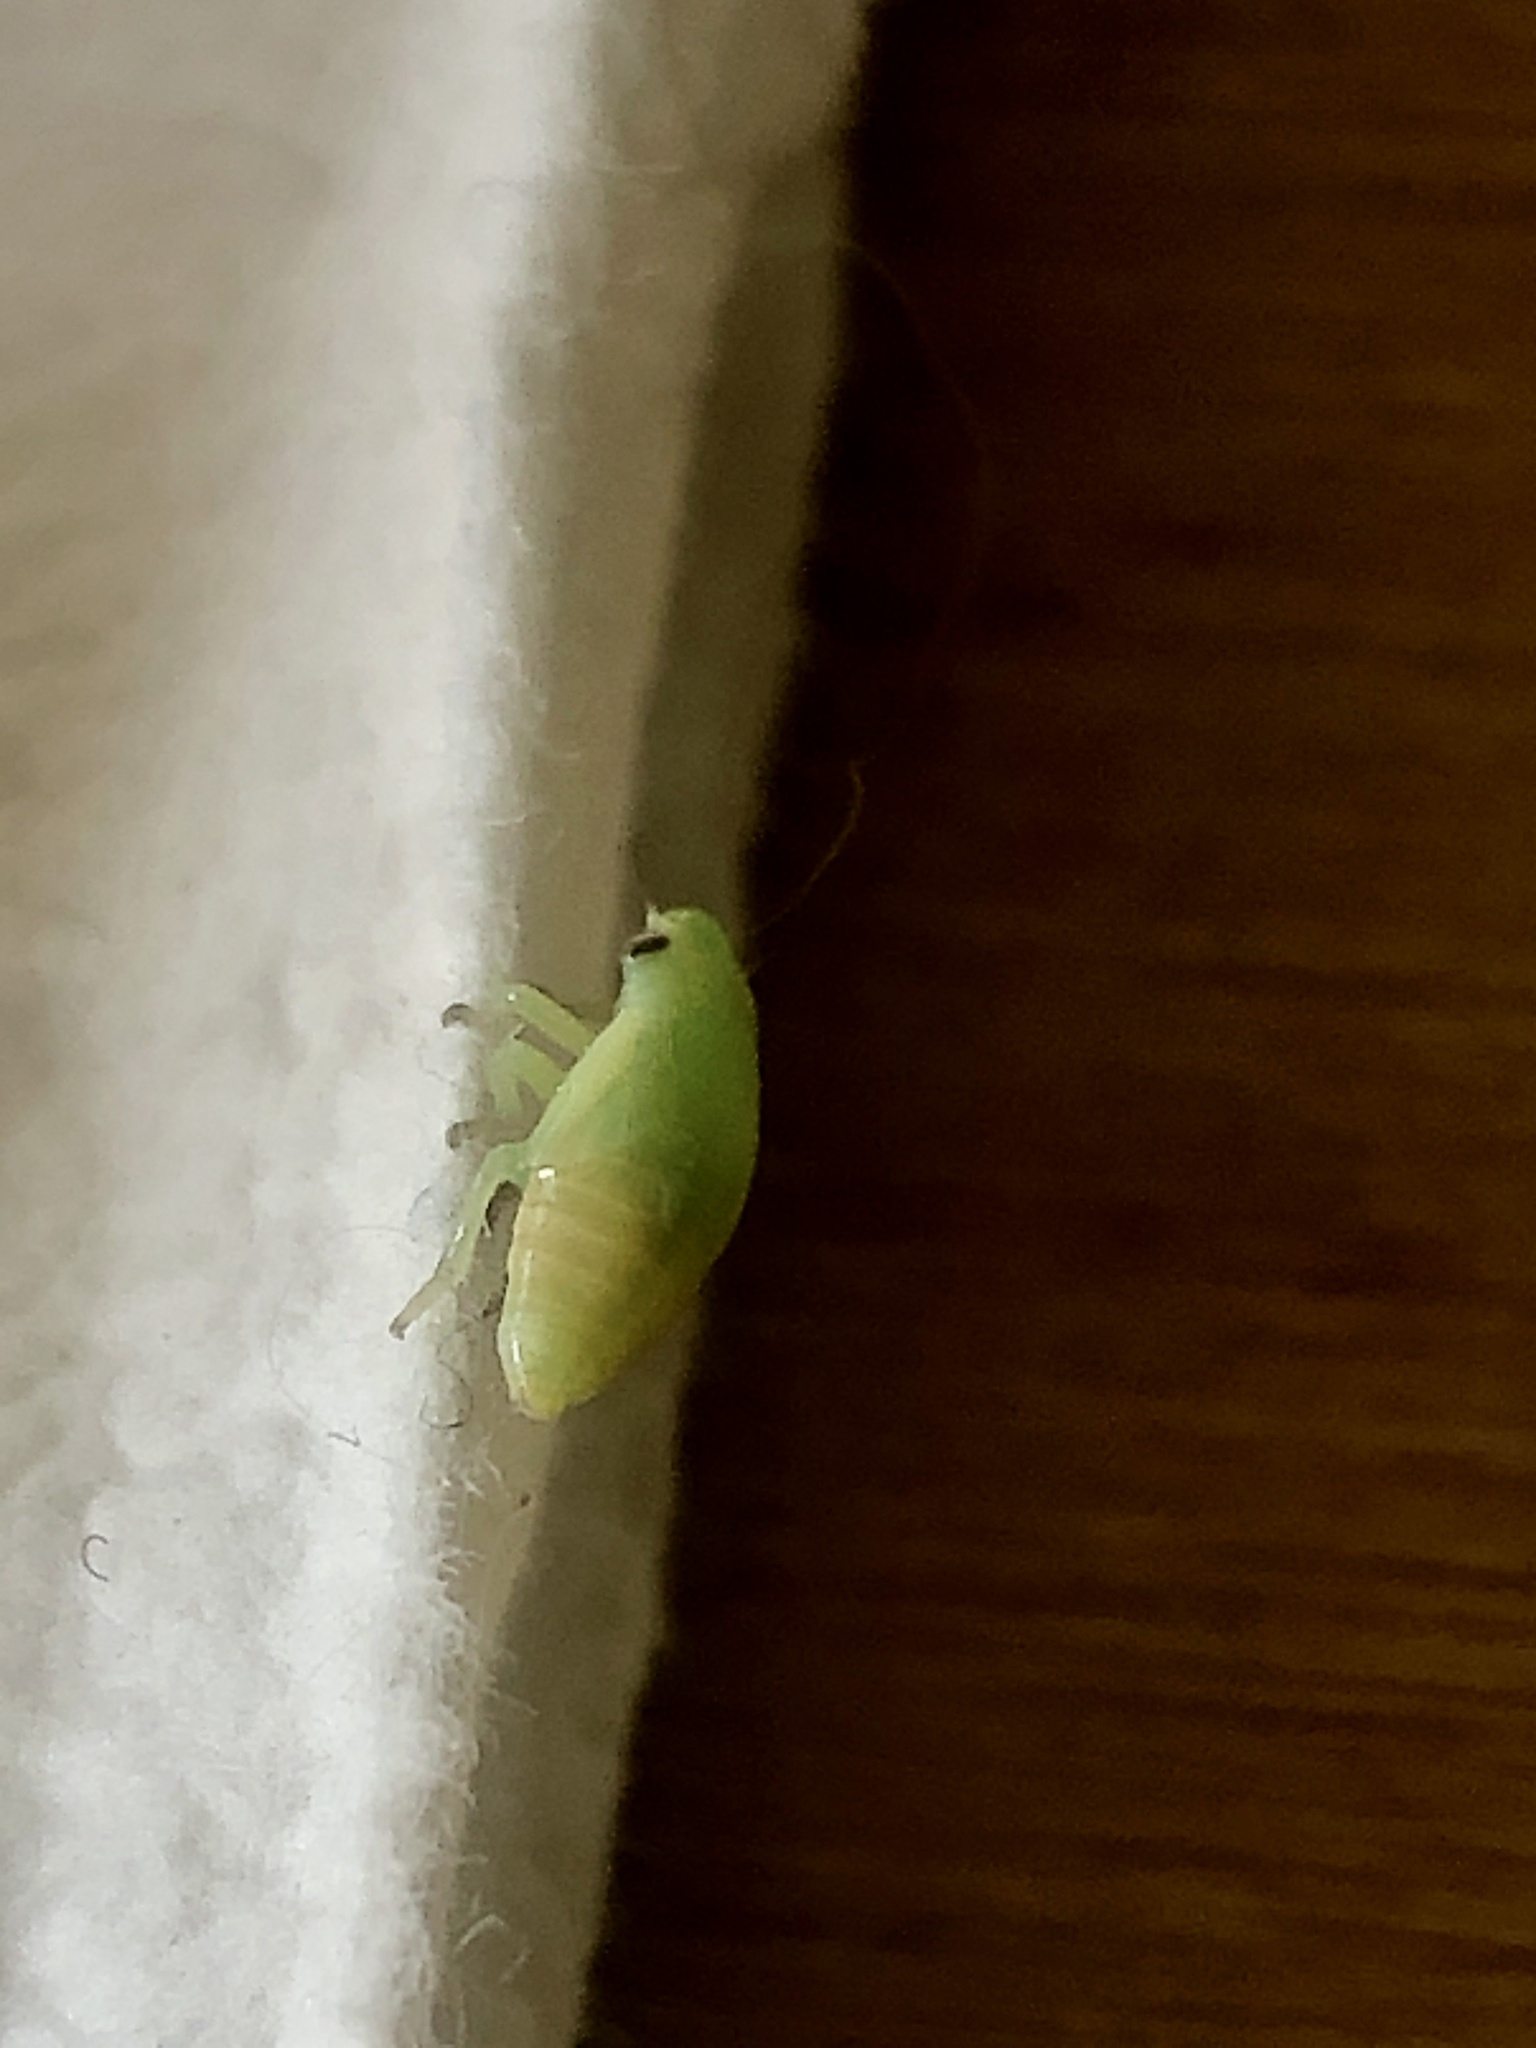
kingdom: Animalia
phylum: Arthropoda
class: Insecta
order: Hemiptera
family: Aphrophoridae
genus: Philaenus
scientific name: Philaenus spumarius
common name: Meadow spittlebug
